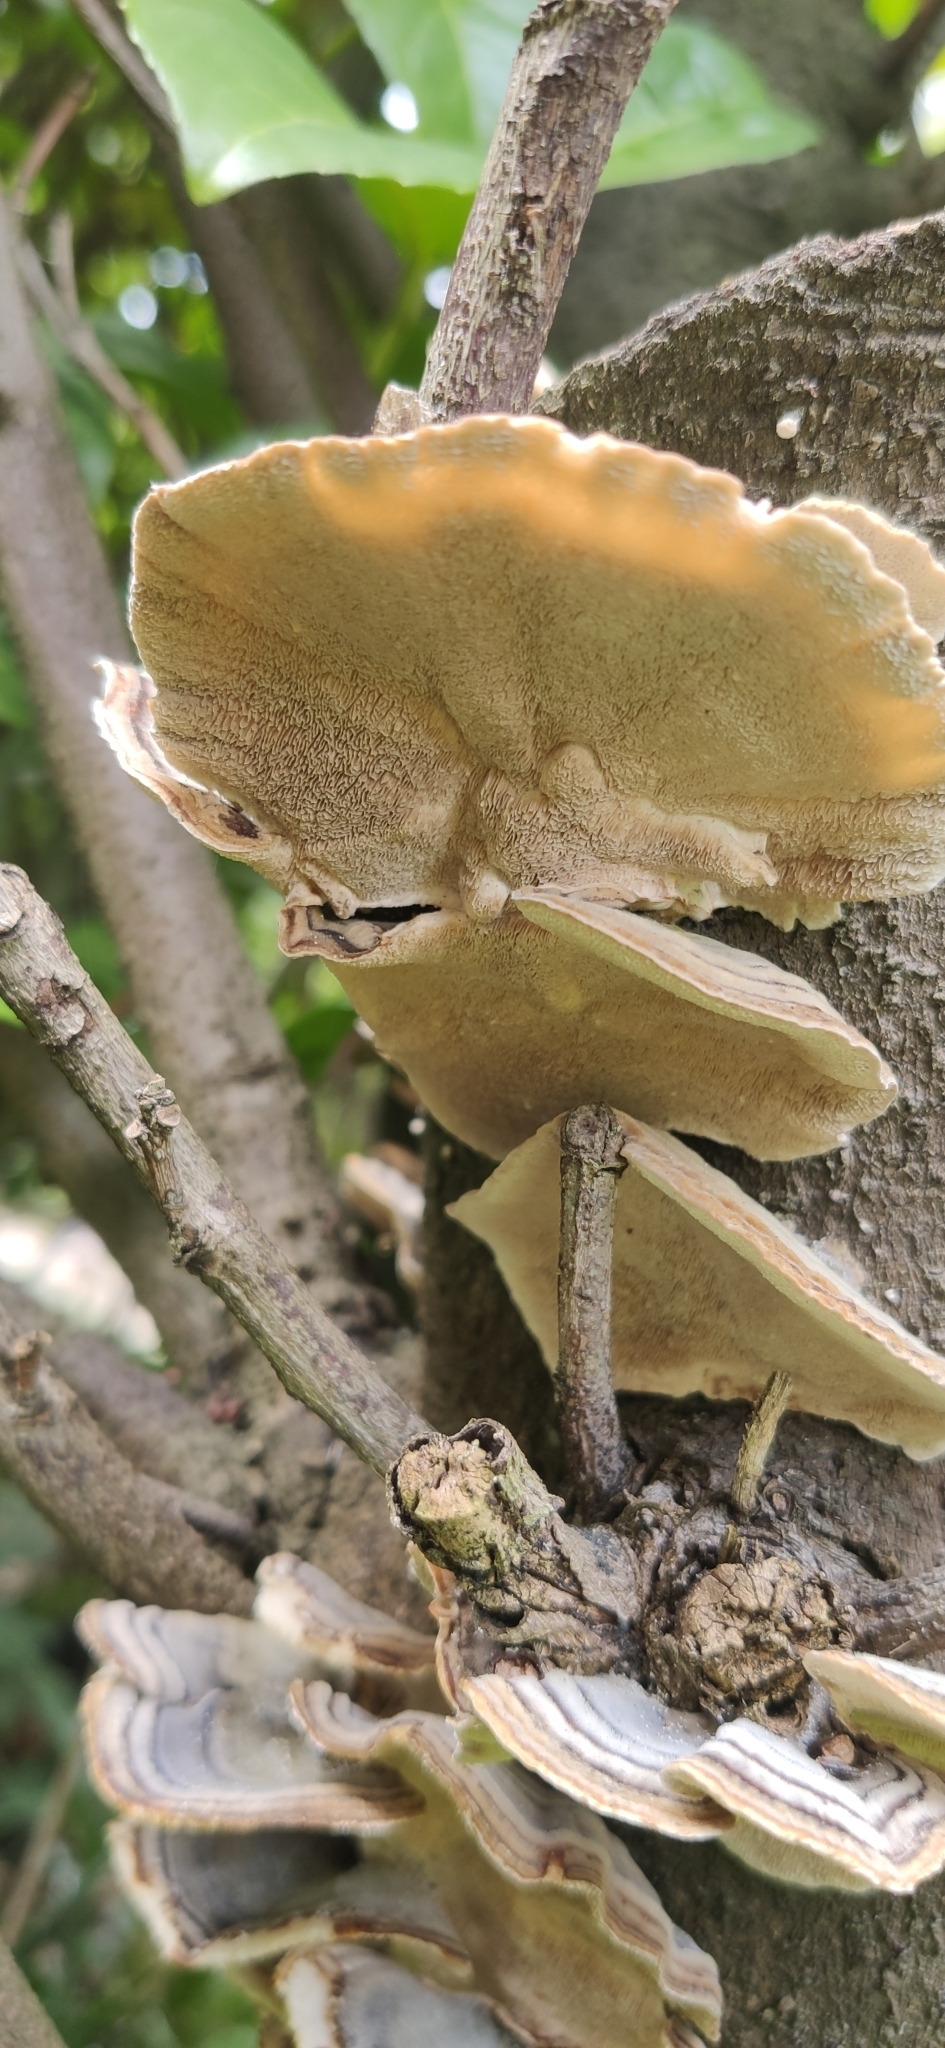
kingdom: Fungi
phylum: Basidiomycota
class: Agaricomycetes
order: Polyporales
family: Polyporaceae
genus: Trametes
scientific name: Trametes versicolor
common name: Turkeytail
